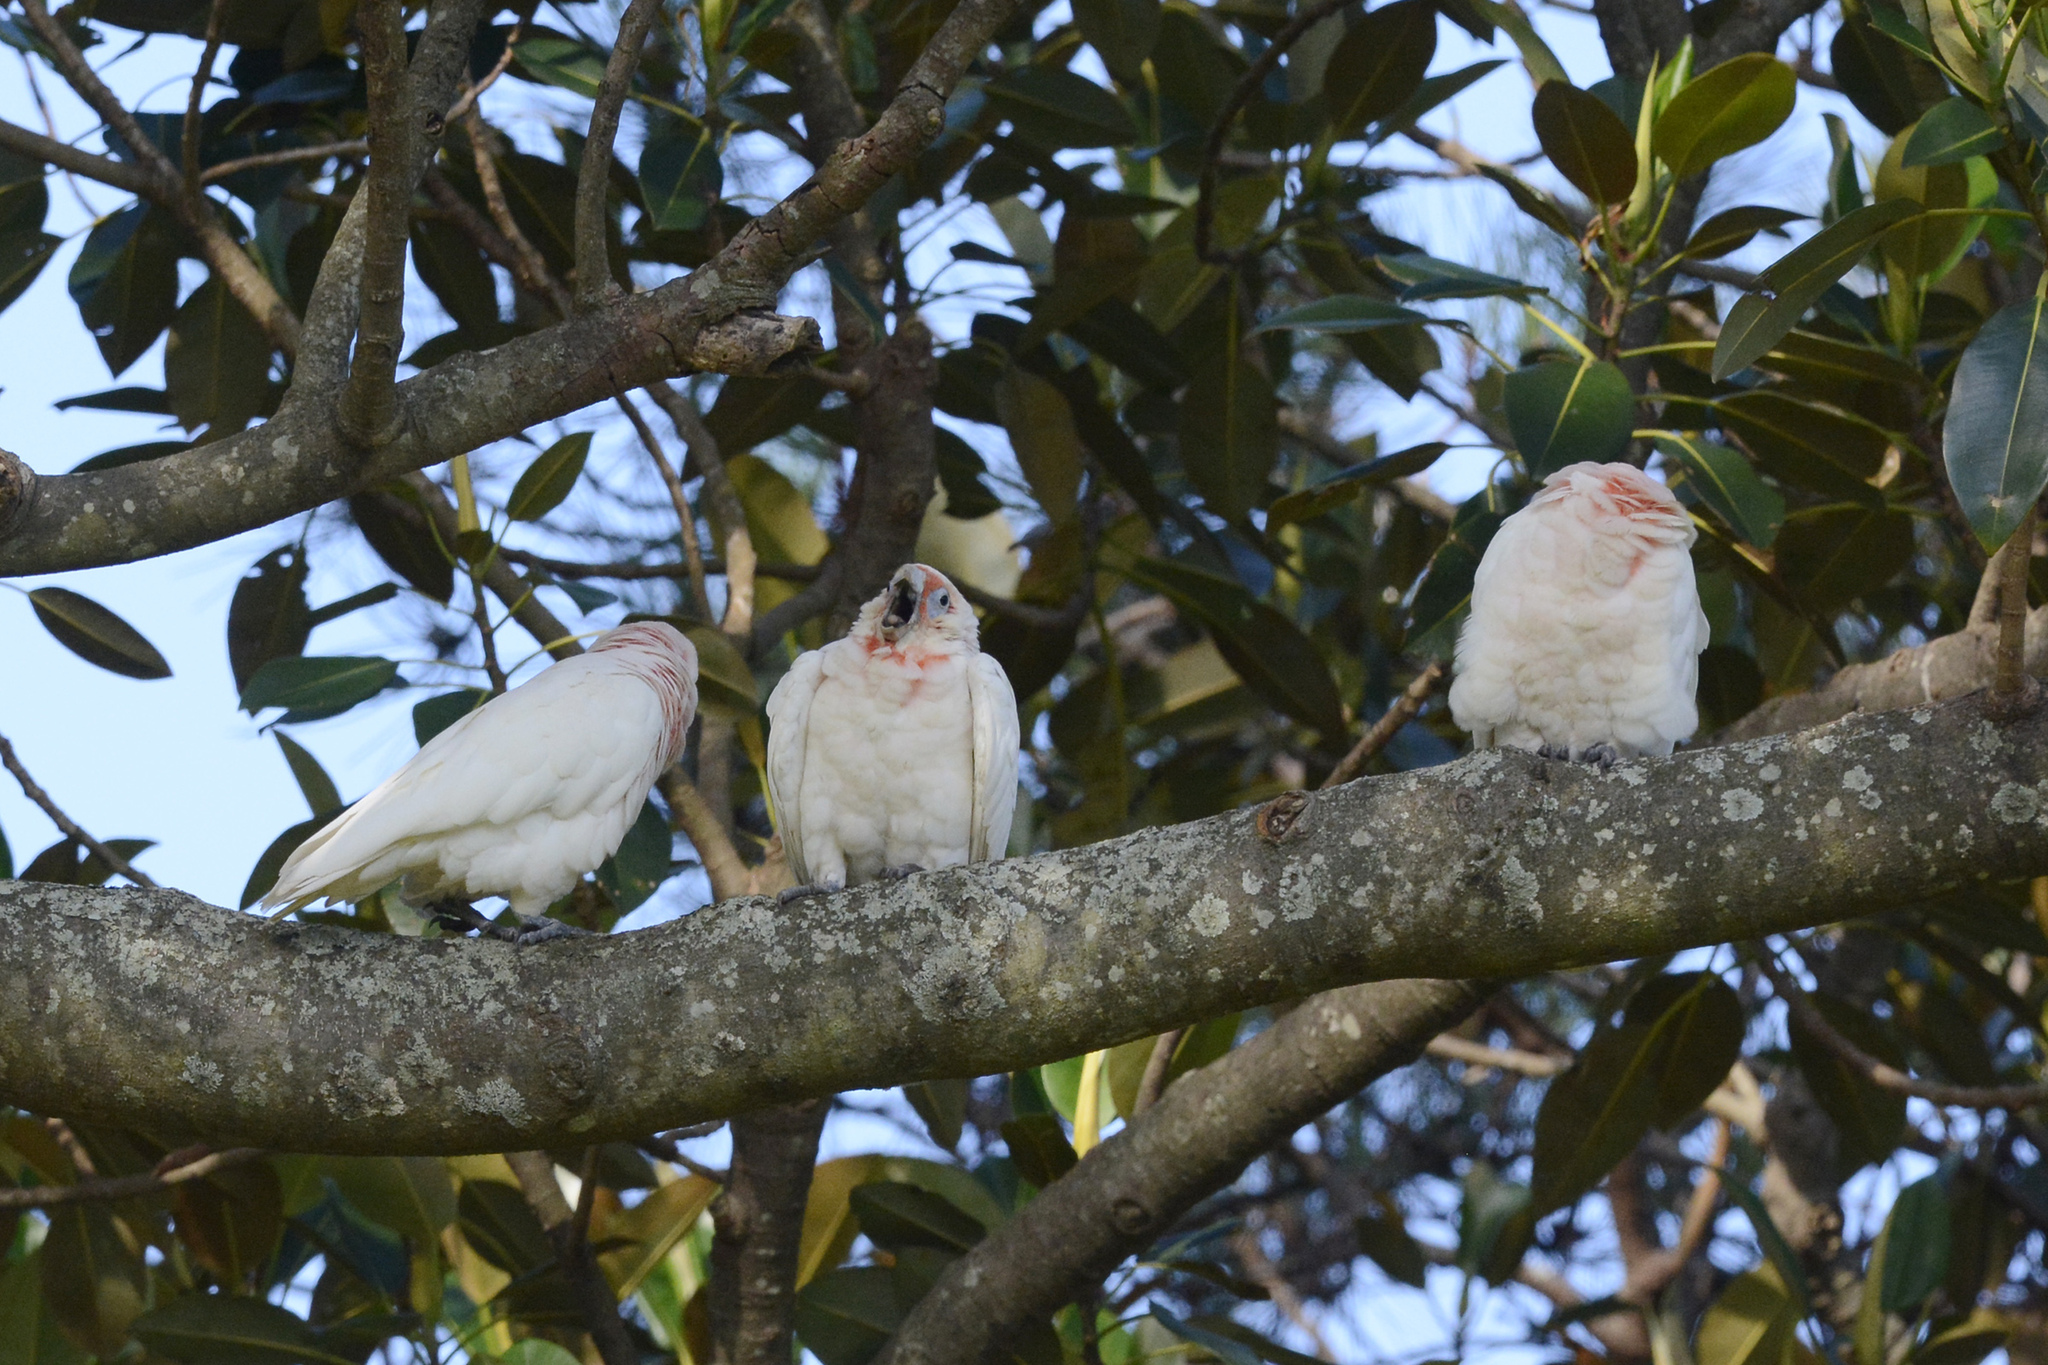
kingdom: Animalia
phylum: Chordata
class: Aves
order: Psittaciformes
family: Psittacidae
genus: Cacatua
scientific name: Cacatua tenuirostris
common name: Long-billed corella
